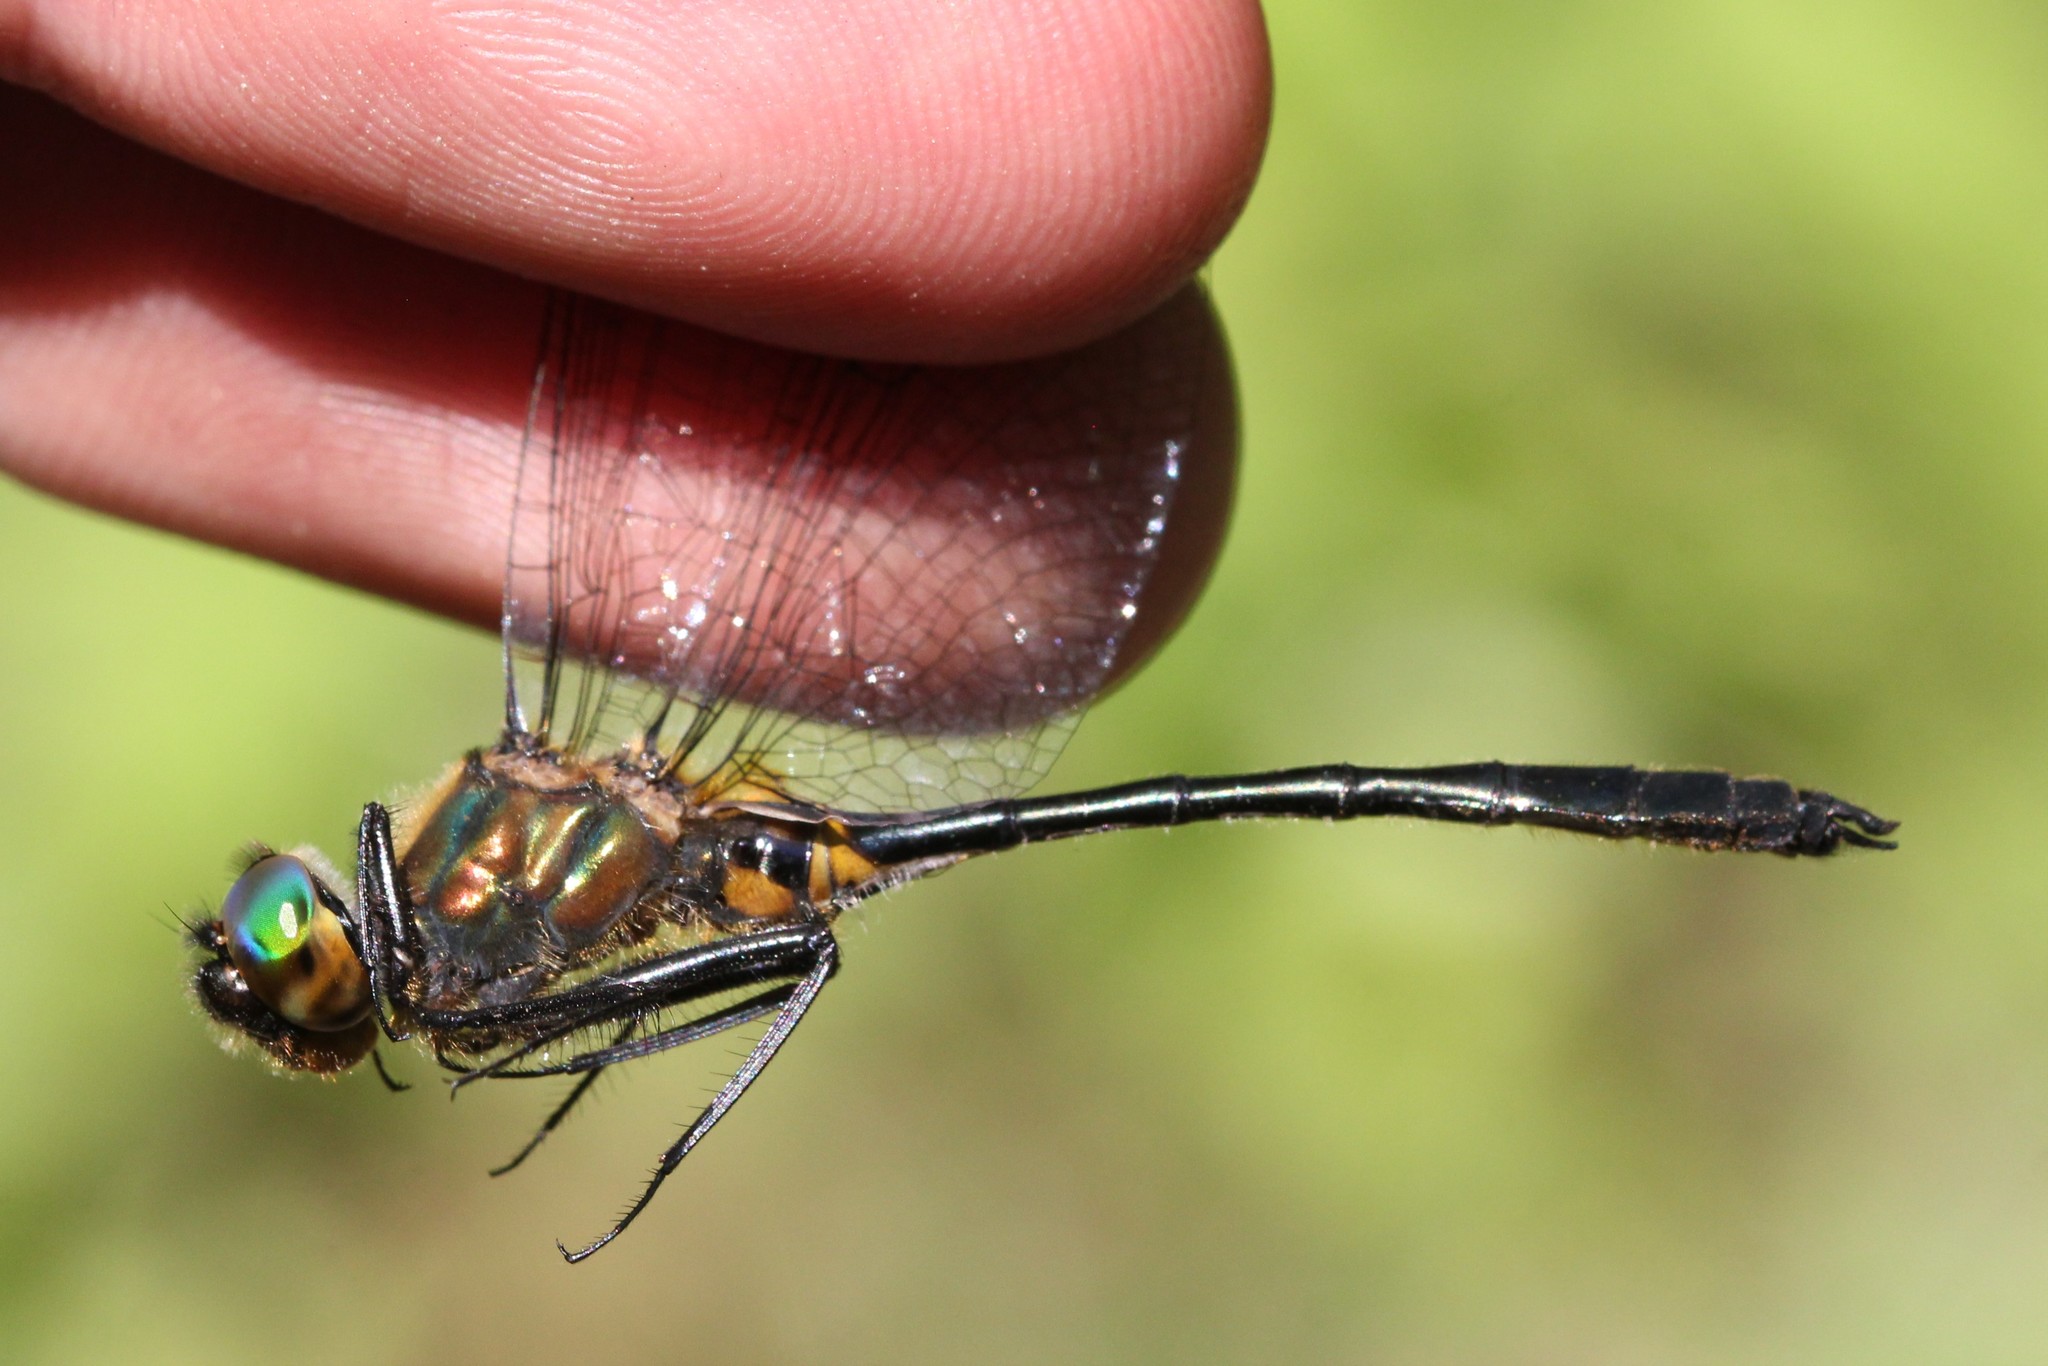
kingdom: Animalia
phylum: Arthropoda
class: Insecta
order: Odonata
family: Corduliidae
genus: Dorocordulia
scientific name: Dorocordulia libera
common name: Racket-tailed emerald
